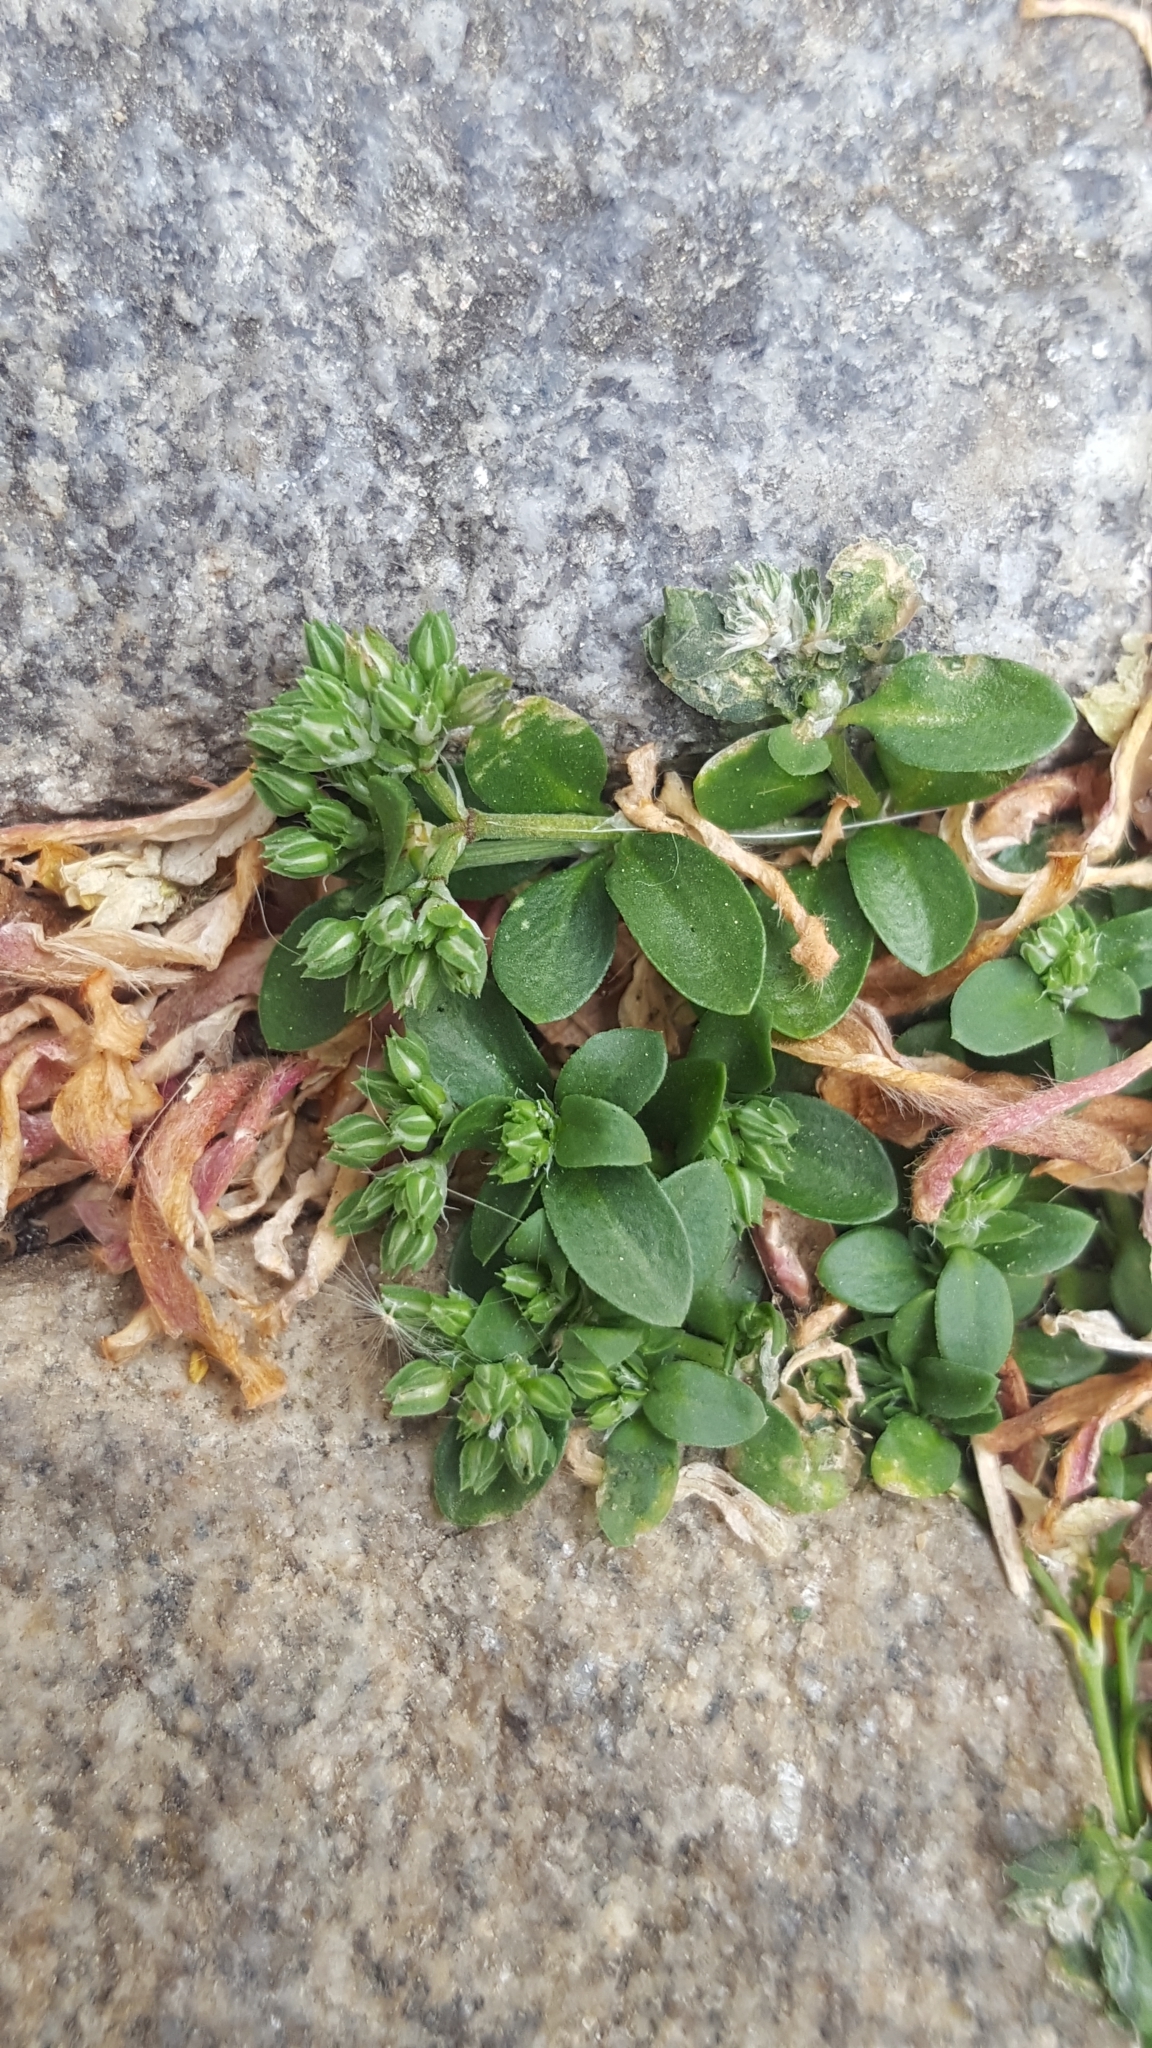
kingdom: Plantae
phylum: Tracheophyta
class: Magnoliopsida
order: Caryophyllales
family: Caryophyllaceae
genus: Polycarpon
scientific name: Polycarpon tetraphyllum
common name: Four-leaved all-seed
